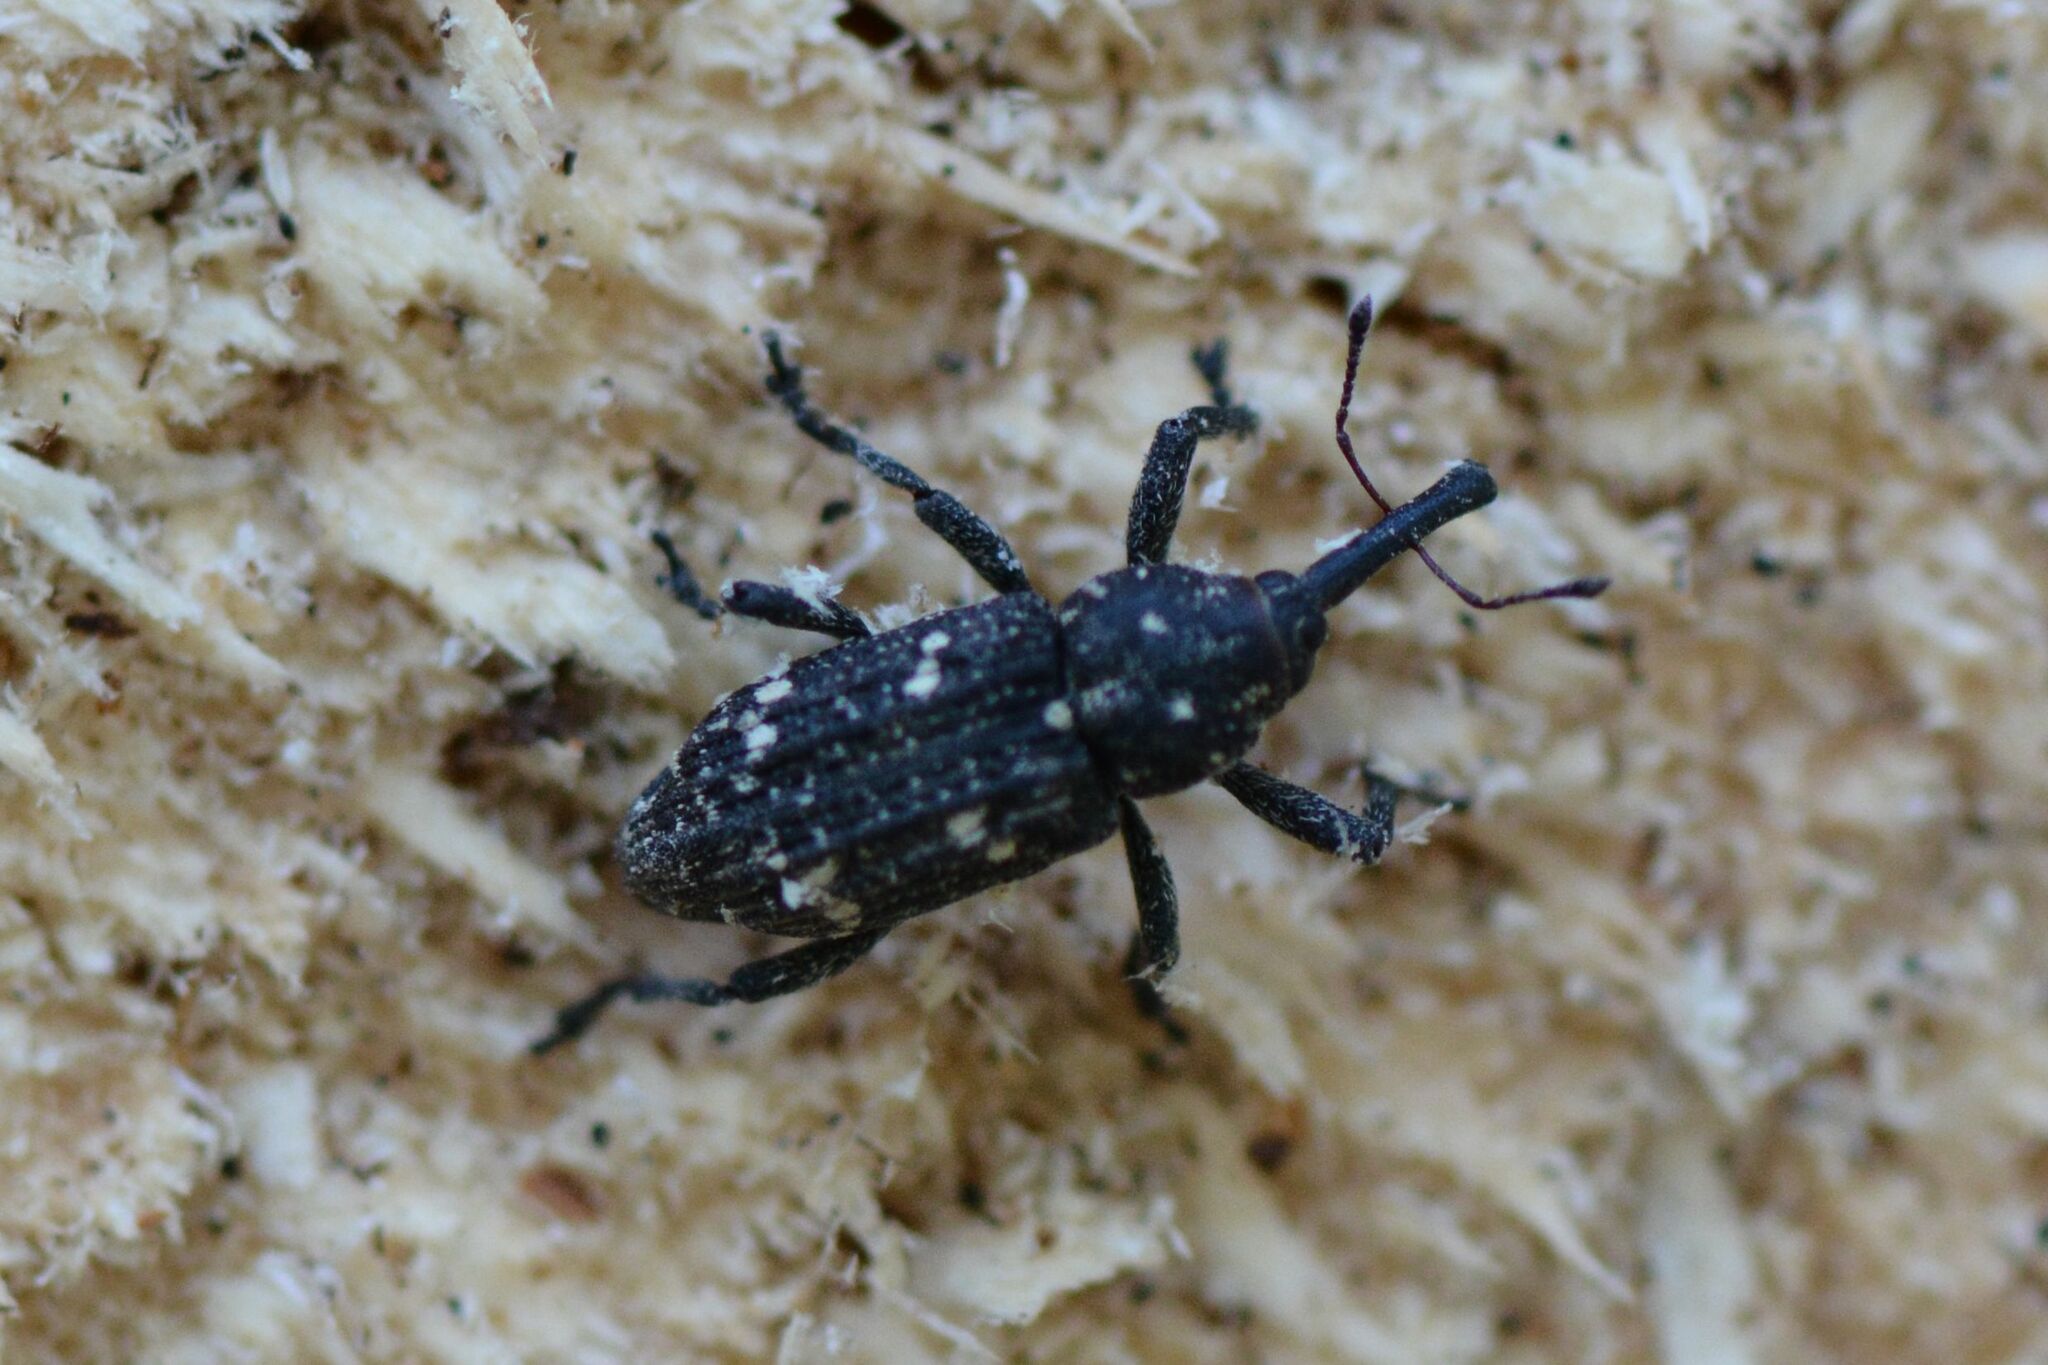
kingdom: Animalia
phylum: Arthropoda
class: Insecta
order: Coleoptera
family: Curculionidae
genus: Pissodes
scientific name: Pissodes harcyniae
